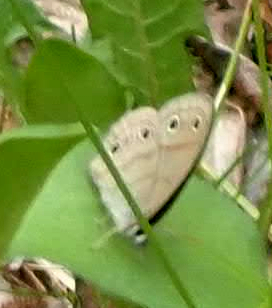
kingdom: Animalia
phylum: Arthropoda
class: Insecta
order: Lepidoptera
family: Nymphalidae
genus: Euptychia
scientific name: Euptychia cymela
